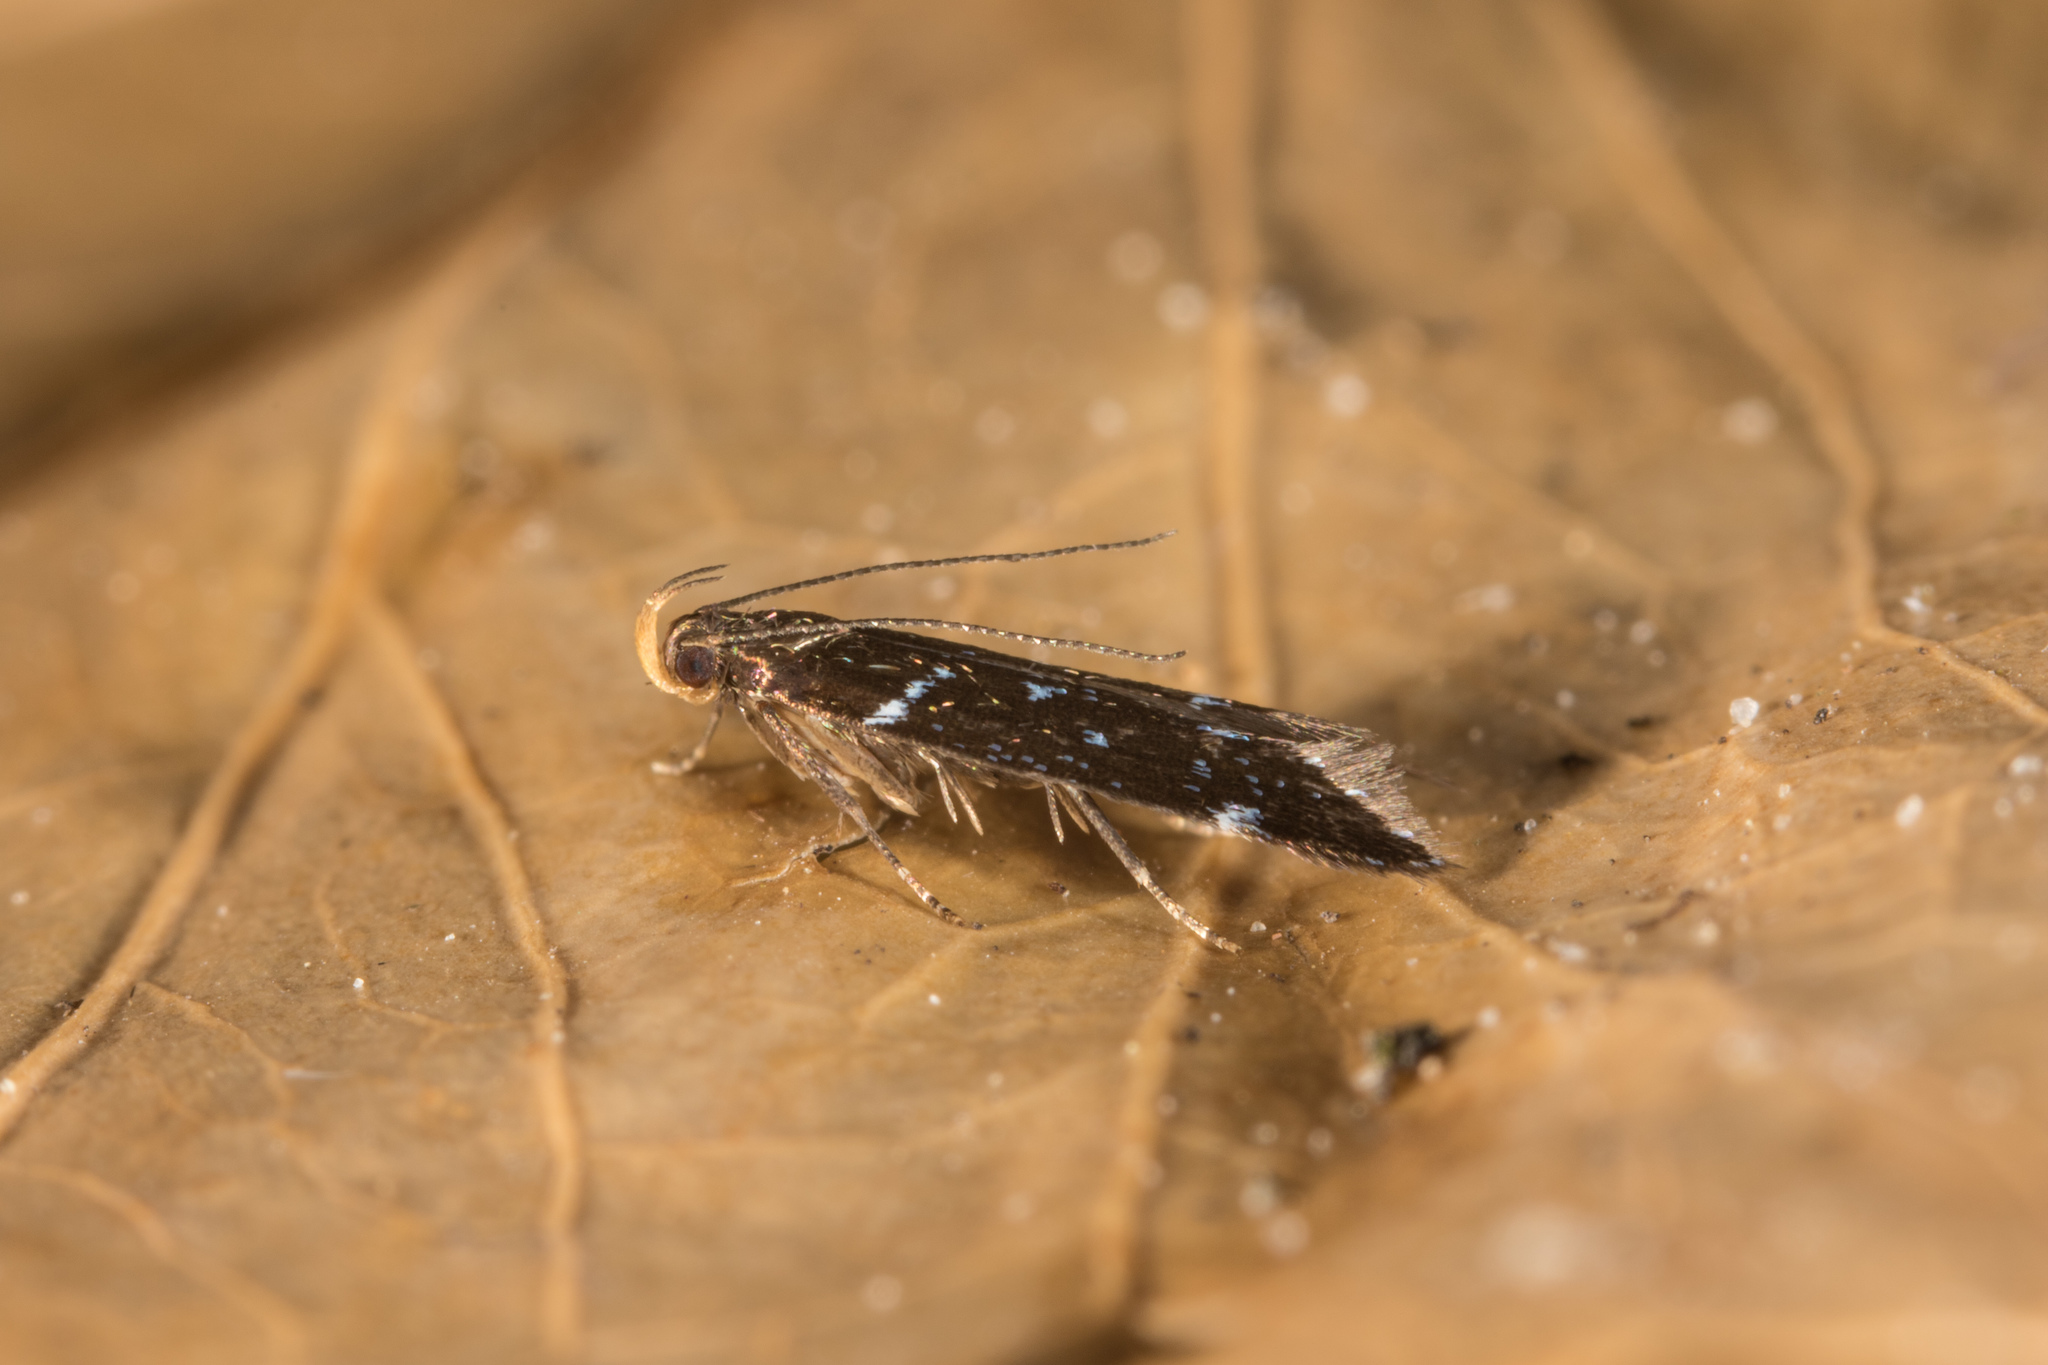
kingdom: Animalia
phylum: Arthropoda
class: Insecta
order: Lepidoptera
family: Gelechiidae
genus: Argolamprotes
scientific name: Argolamprotes micella
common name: Bright neb
